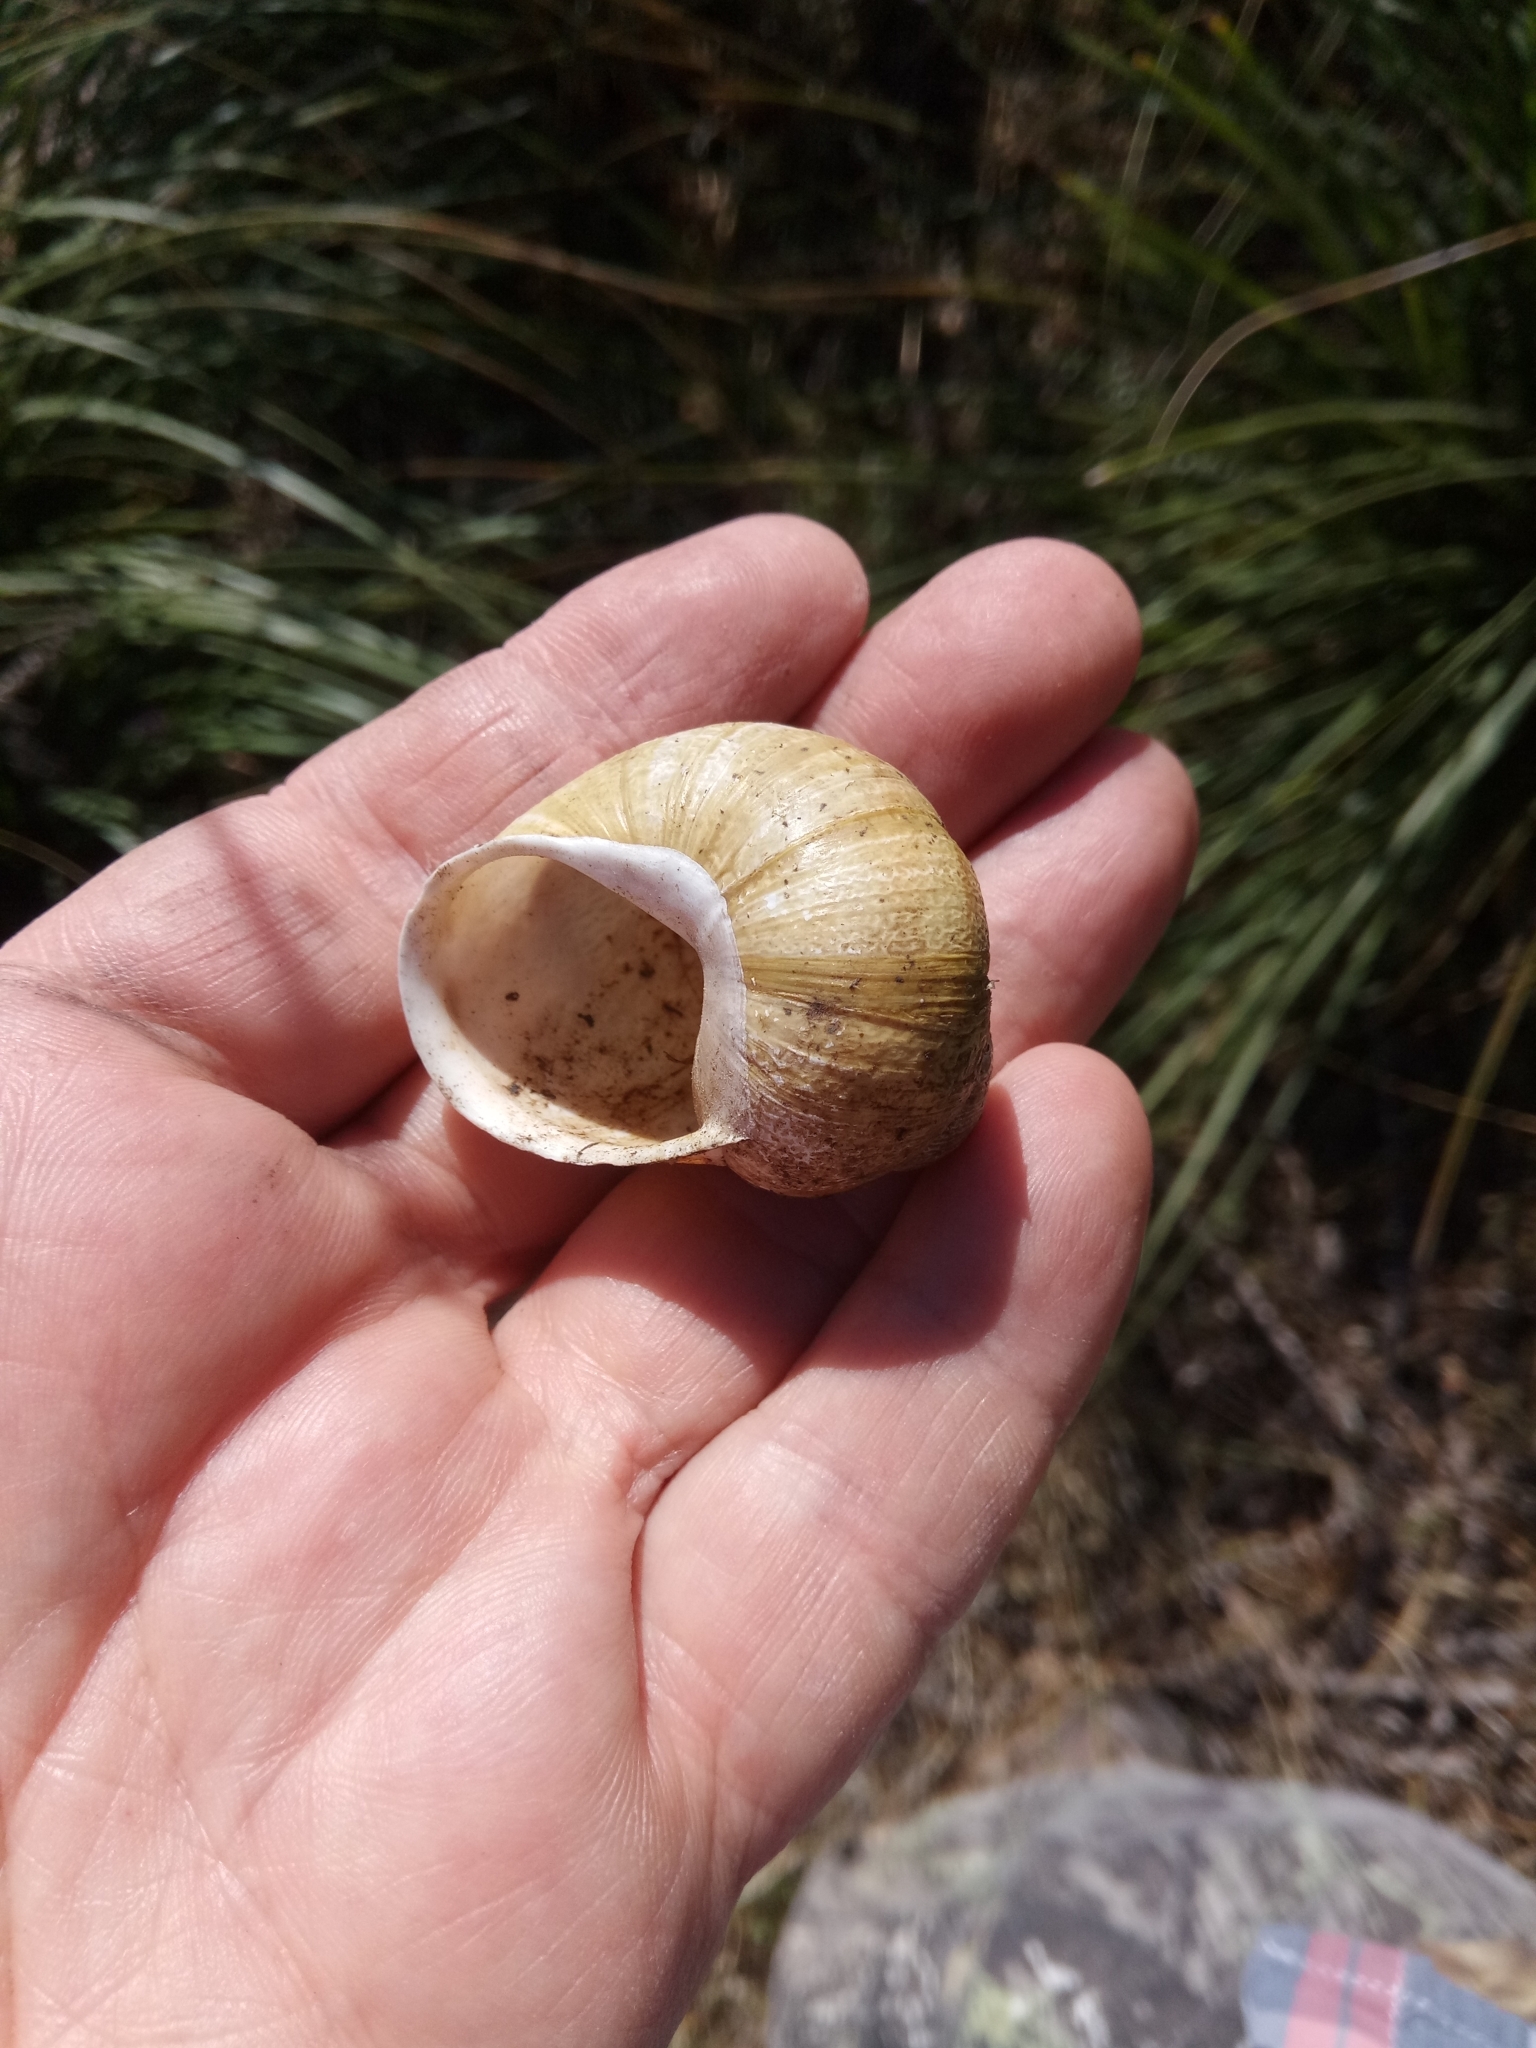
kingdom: Animalia
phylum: Mollusca
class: Gastropoda
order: Stylommatophora
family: Helicidae
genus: Cornu
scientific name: Cornu aspersum
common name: Brown garden snail
